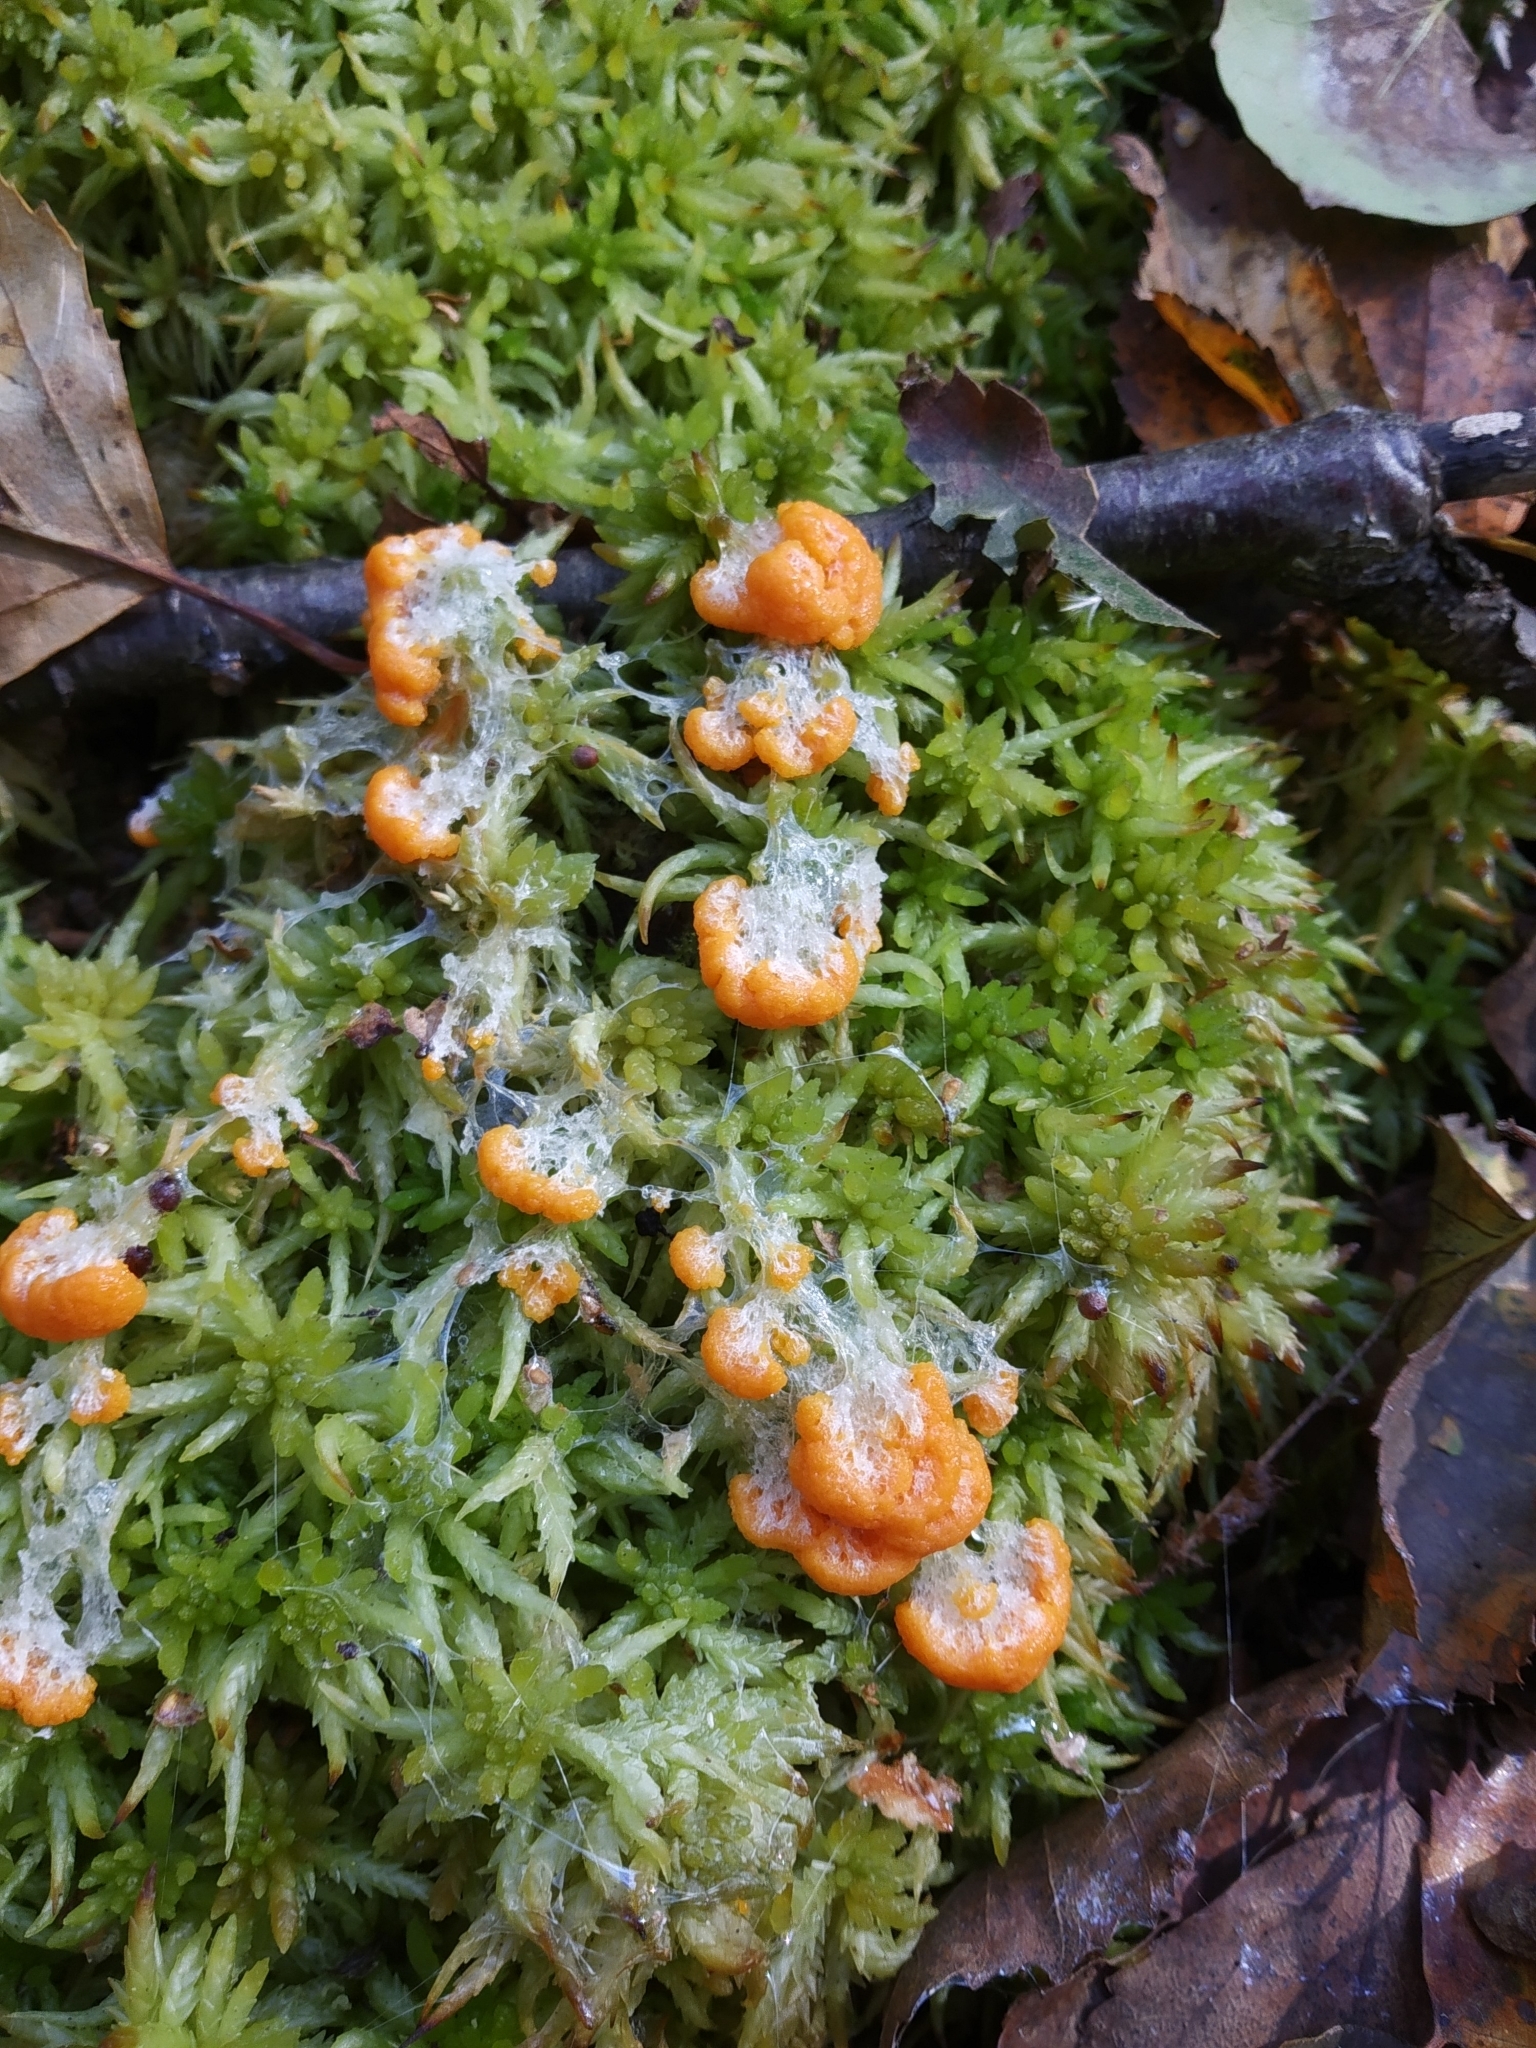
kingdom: Protozoa
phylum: Mycetozoa
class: Myxomycetes
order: Physarales
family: Physaraceae
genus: Fuligo
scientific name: Fuligo muscorum
